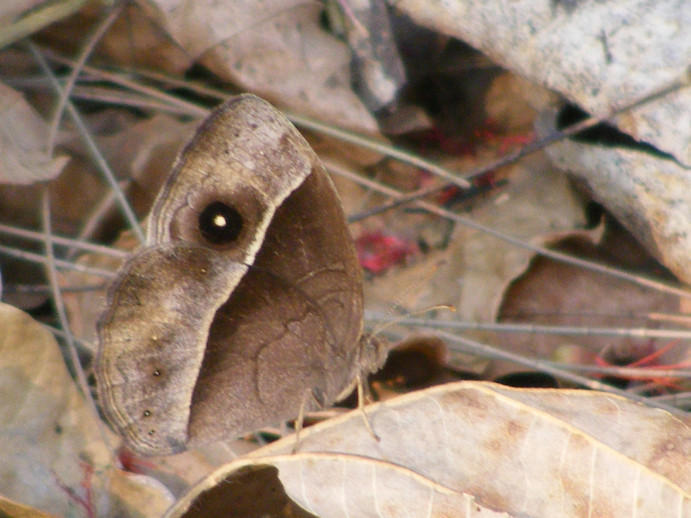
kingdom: Animalia
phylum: Arthropoda
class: Insecta
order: Lepidoptera
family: Nymphalidae
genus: Mycalesis
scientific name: Mycalesis rhacotis
